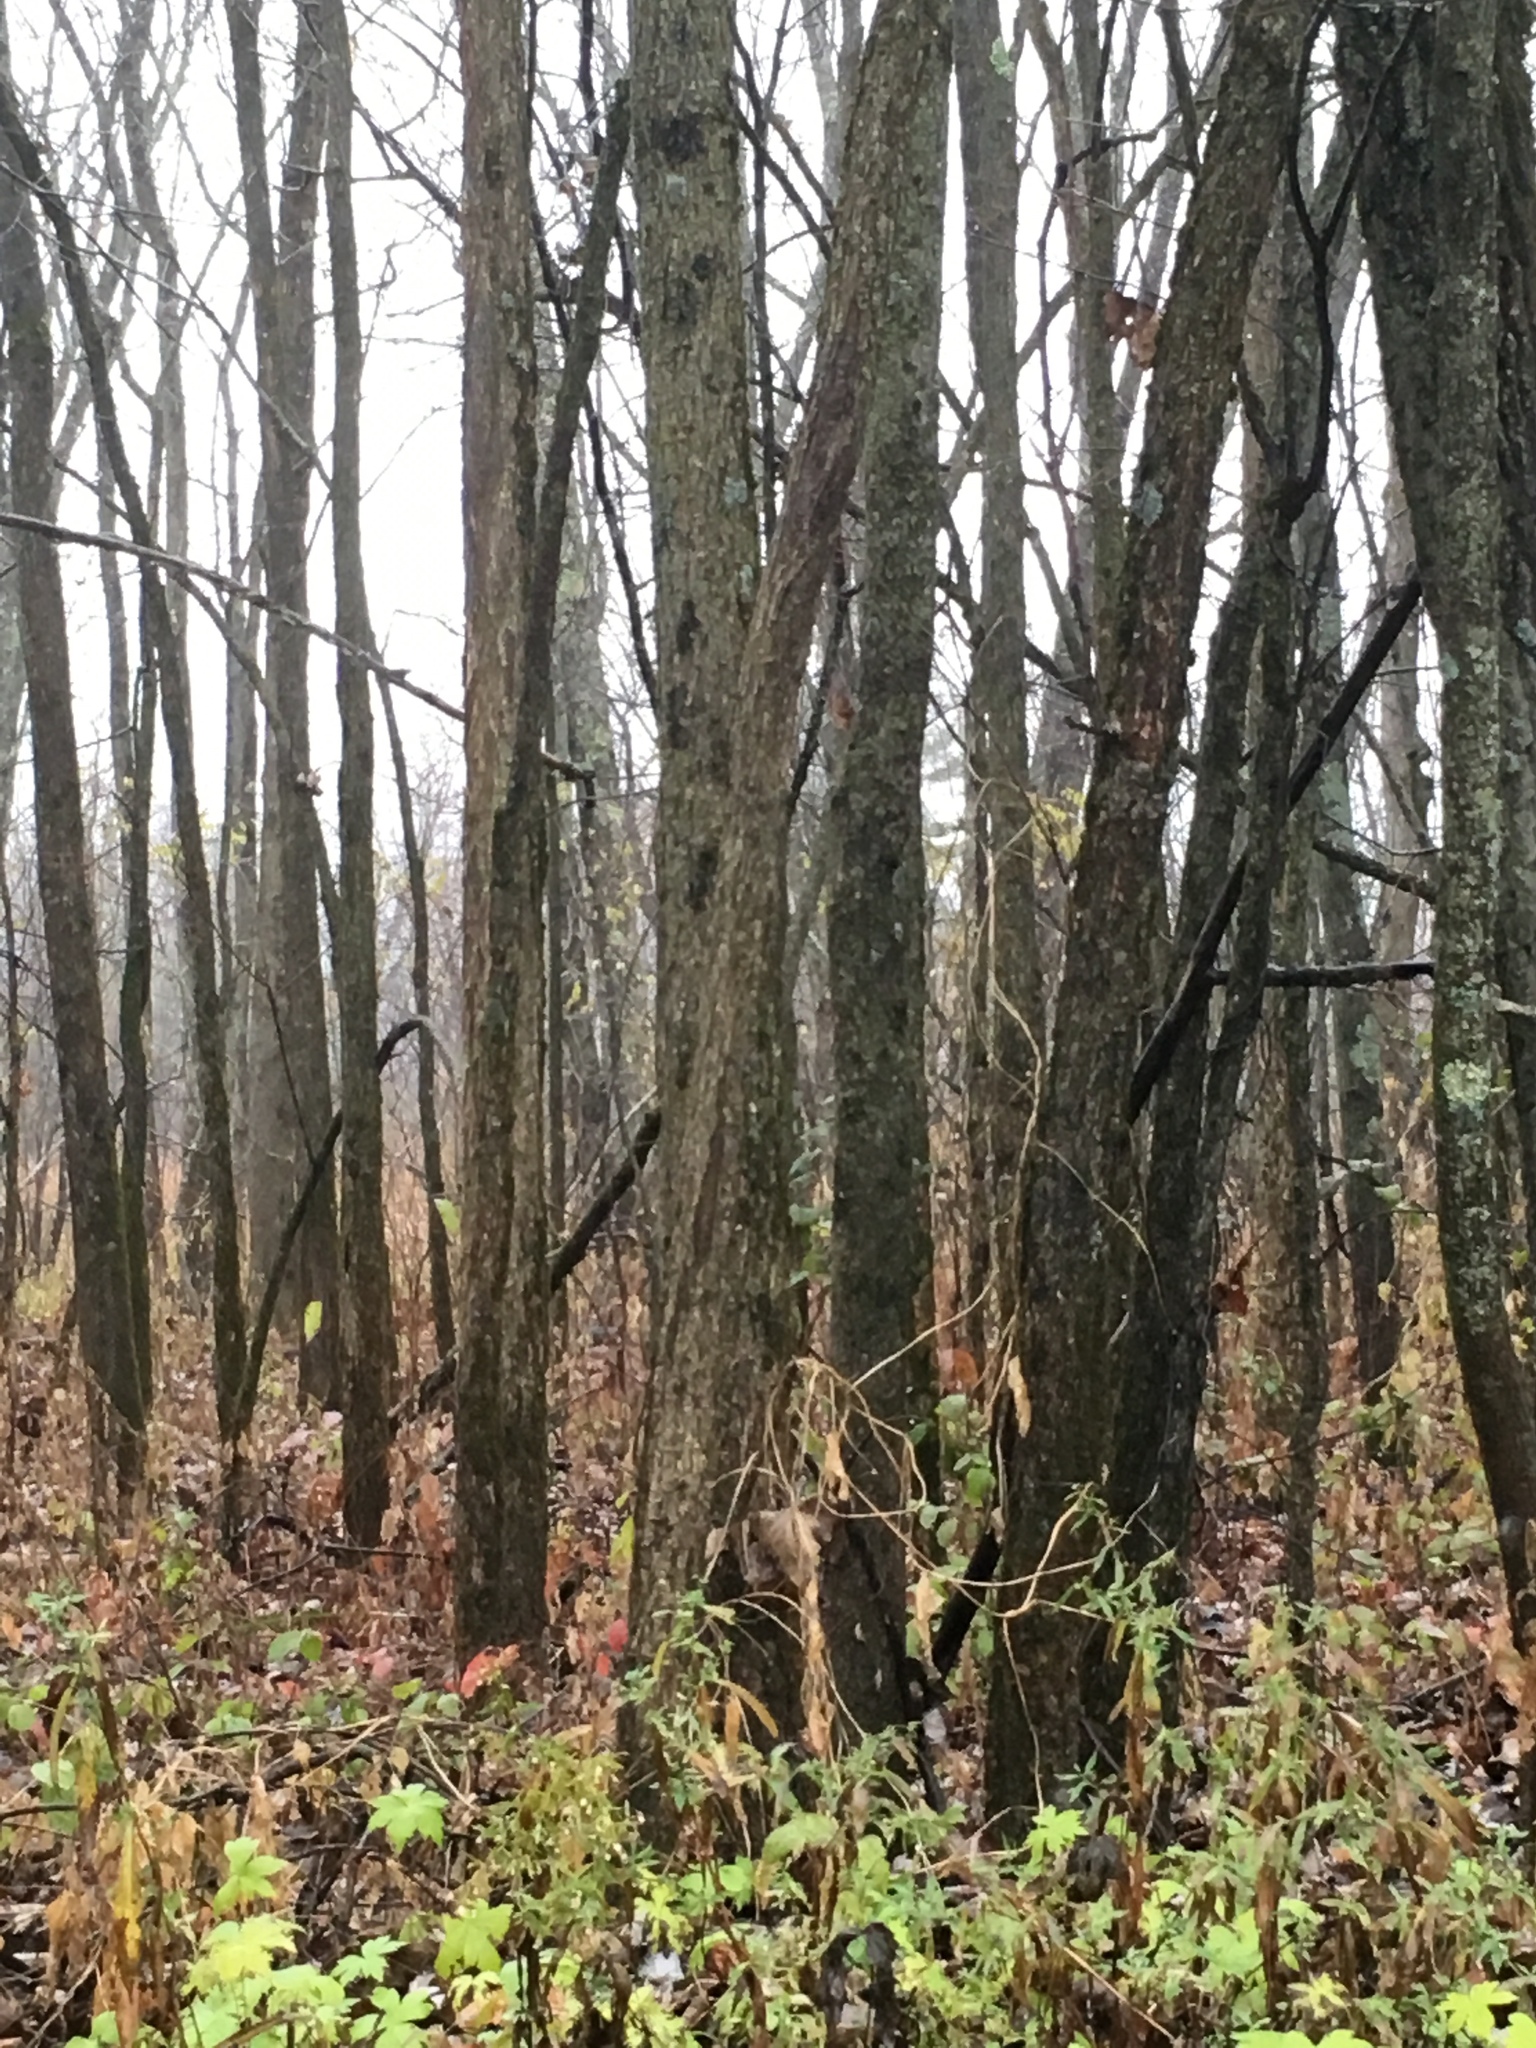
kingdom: Plantae
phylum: Tracheophyta
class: Magnoliopsida
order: Rosales
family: Ulmaceae
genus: Ulmus
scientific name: Ulmus americana
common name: American elm
